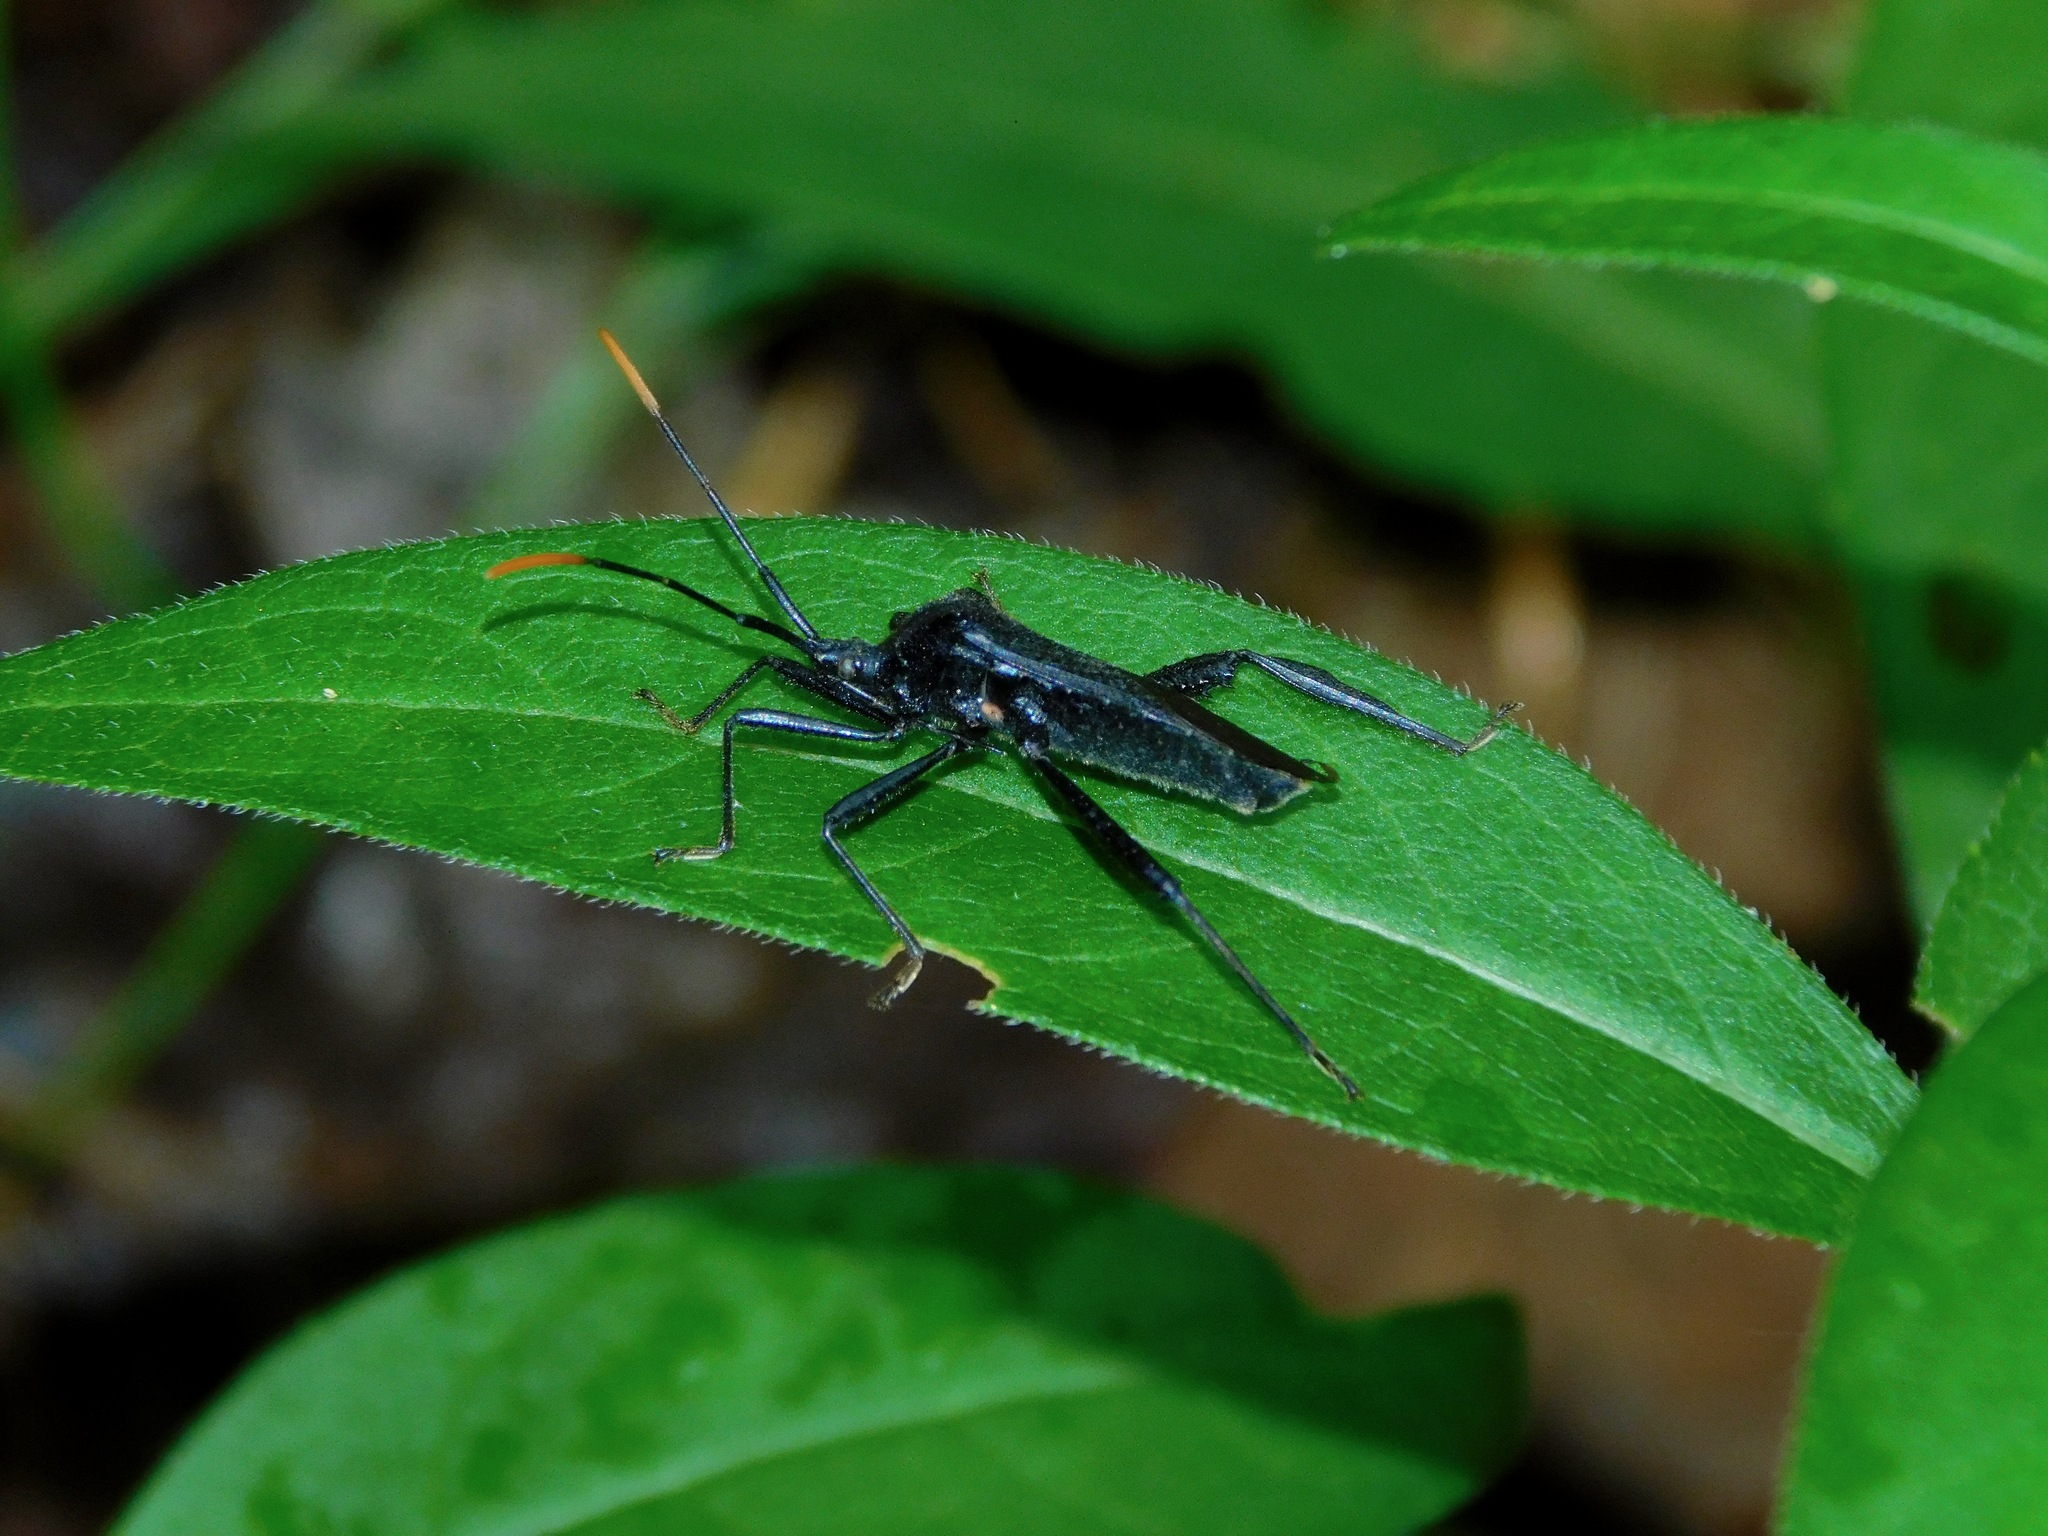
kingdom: Animalia
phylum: Arthropoda
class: Insecta
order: Hemiptera
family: Coreidae
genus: Acanthocephala
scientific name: Acanthocephala terminalis
